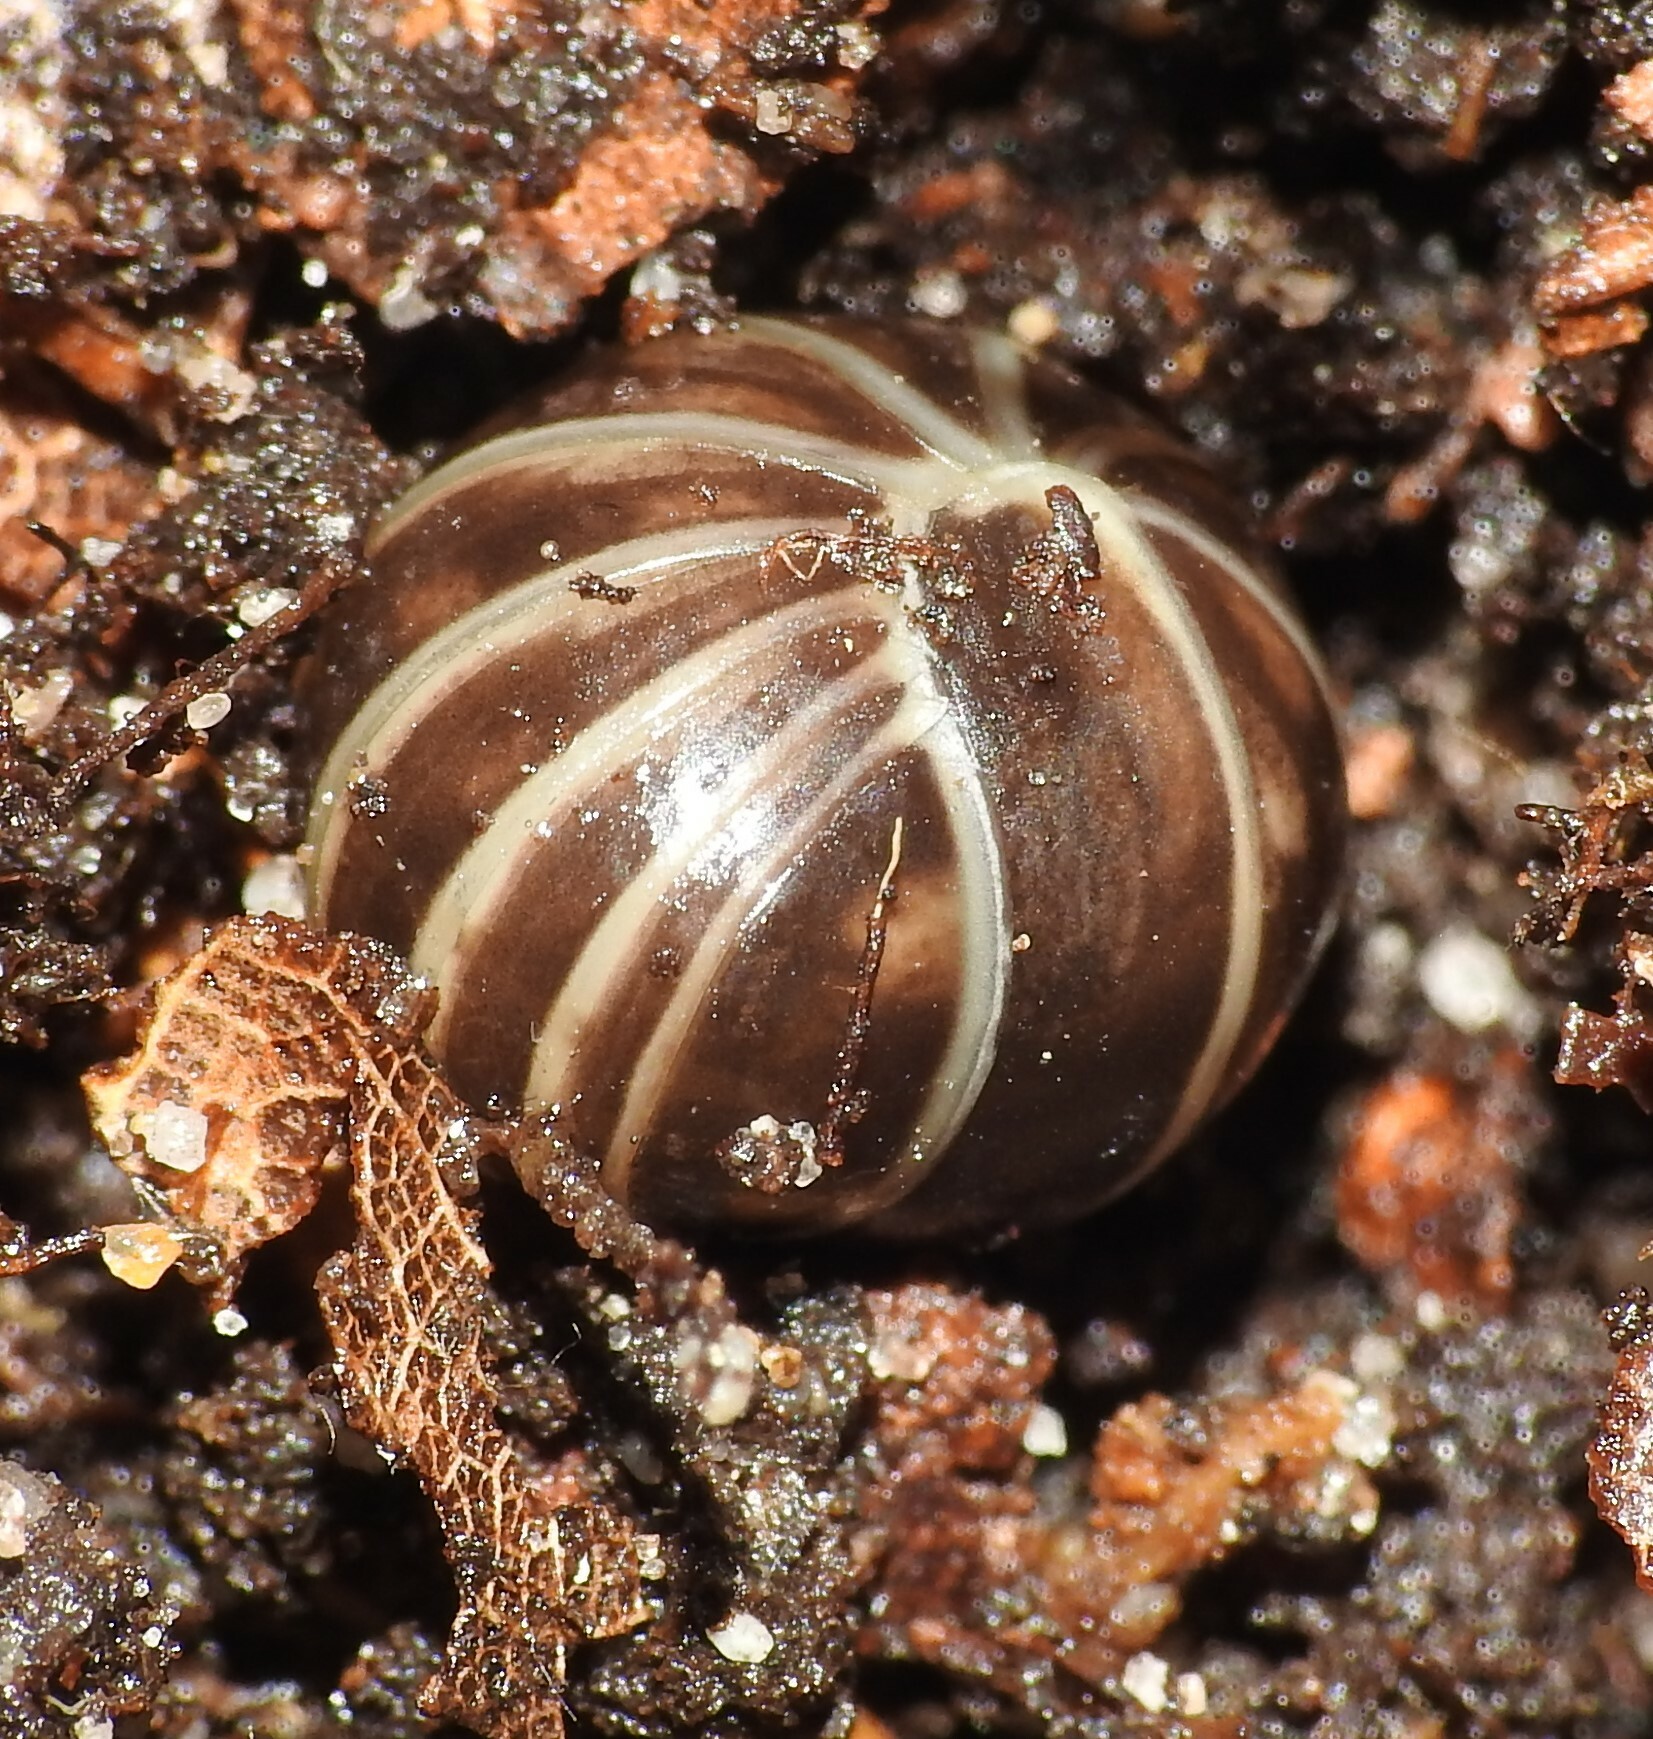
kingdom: Animalia
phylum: Arthropoda
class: Diplopoda
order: Glomerida
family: Glomeridae
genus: Glomeris
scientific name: Glomeris marginata
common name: Bordered pill millipede
